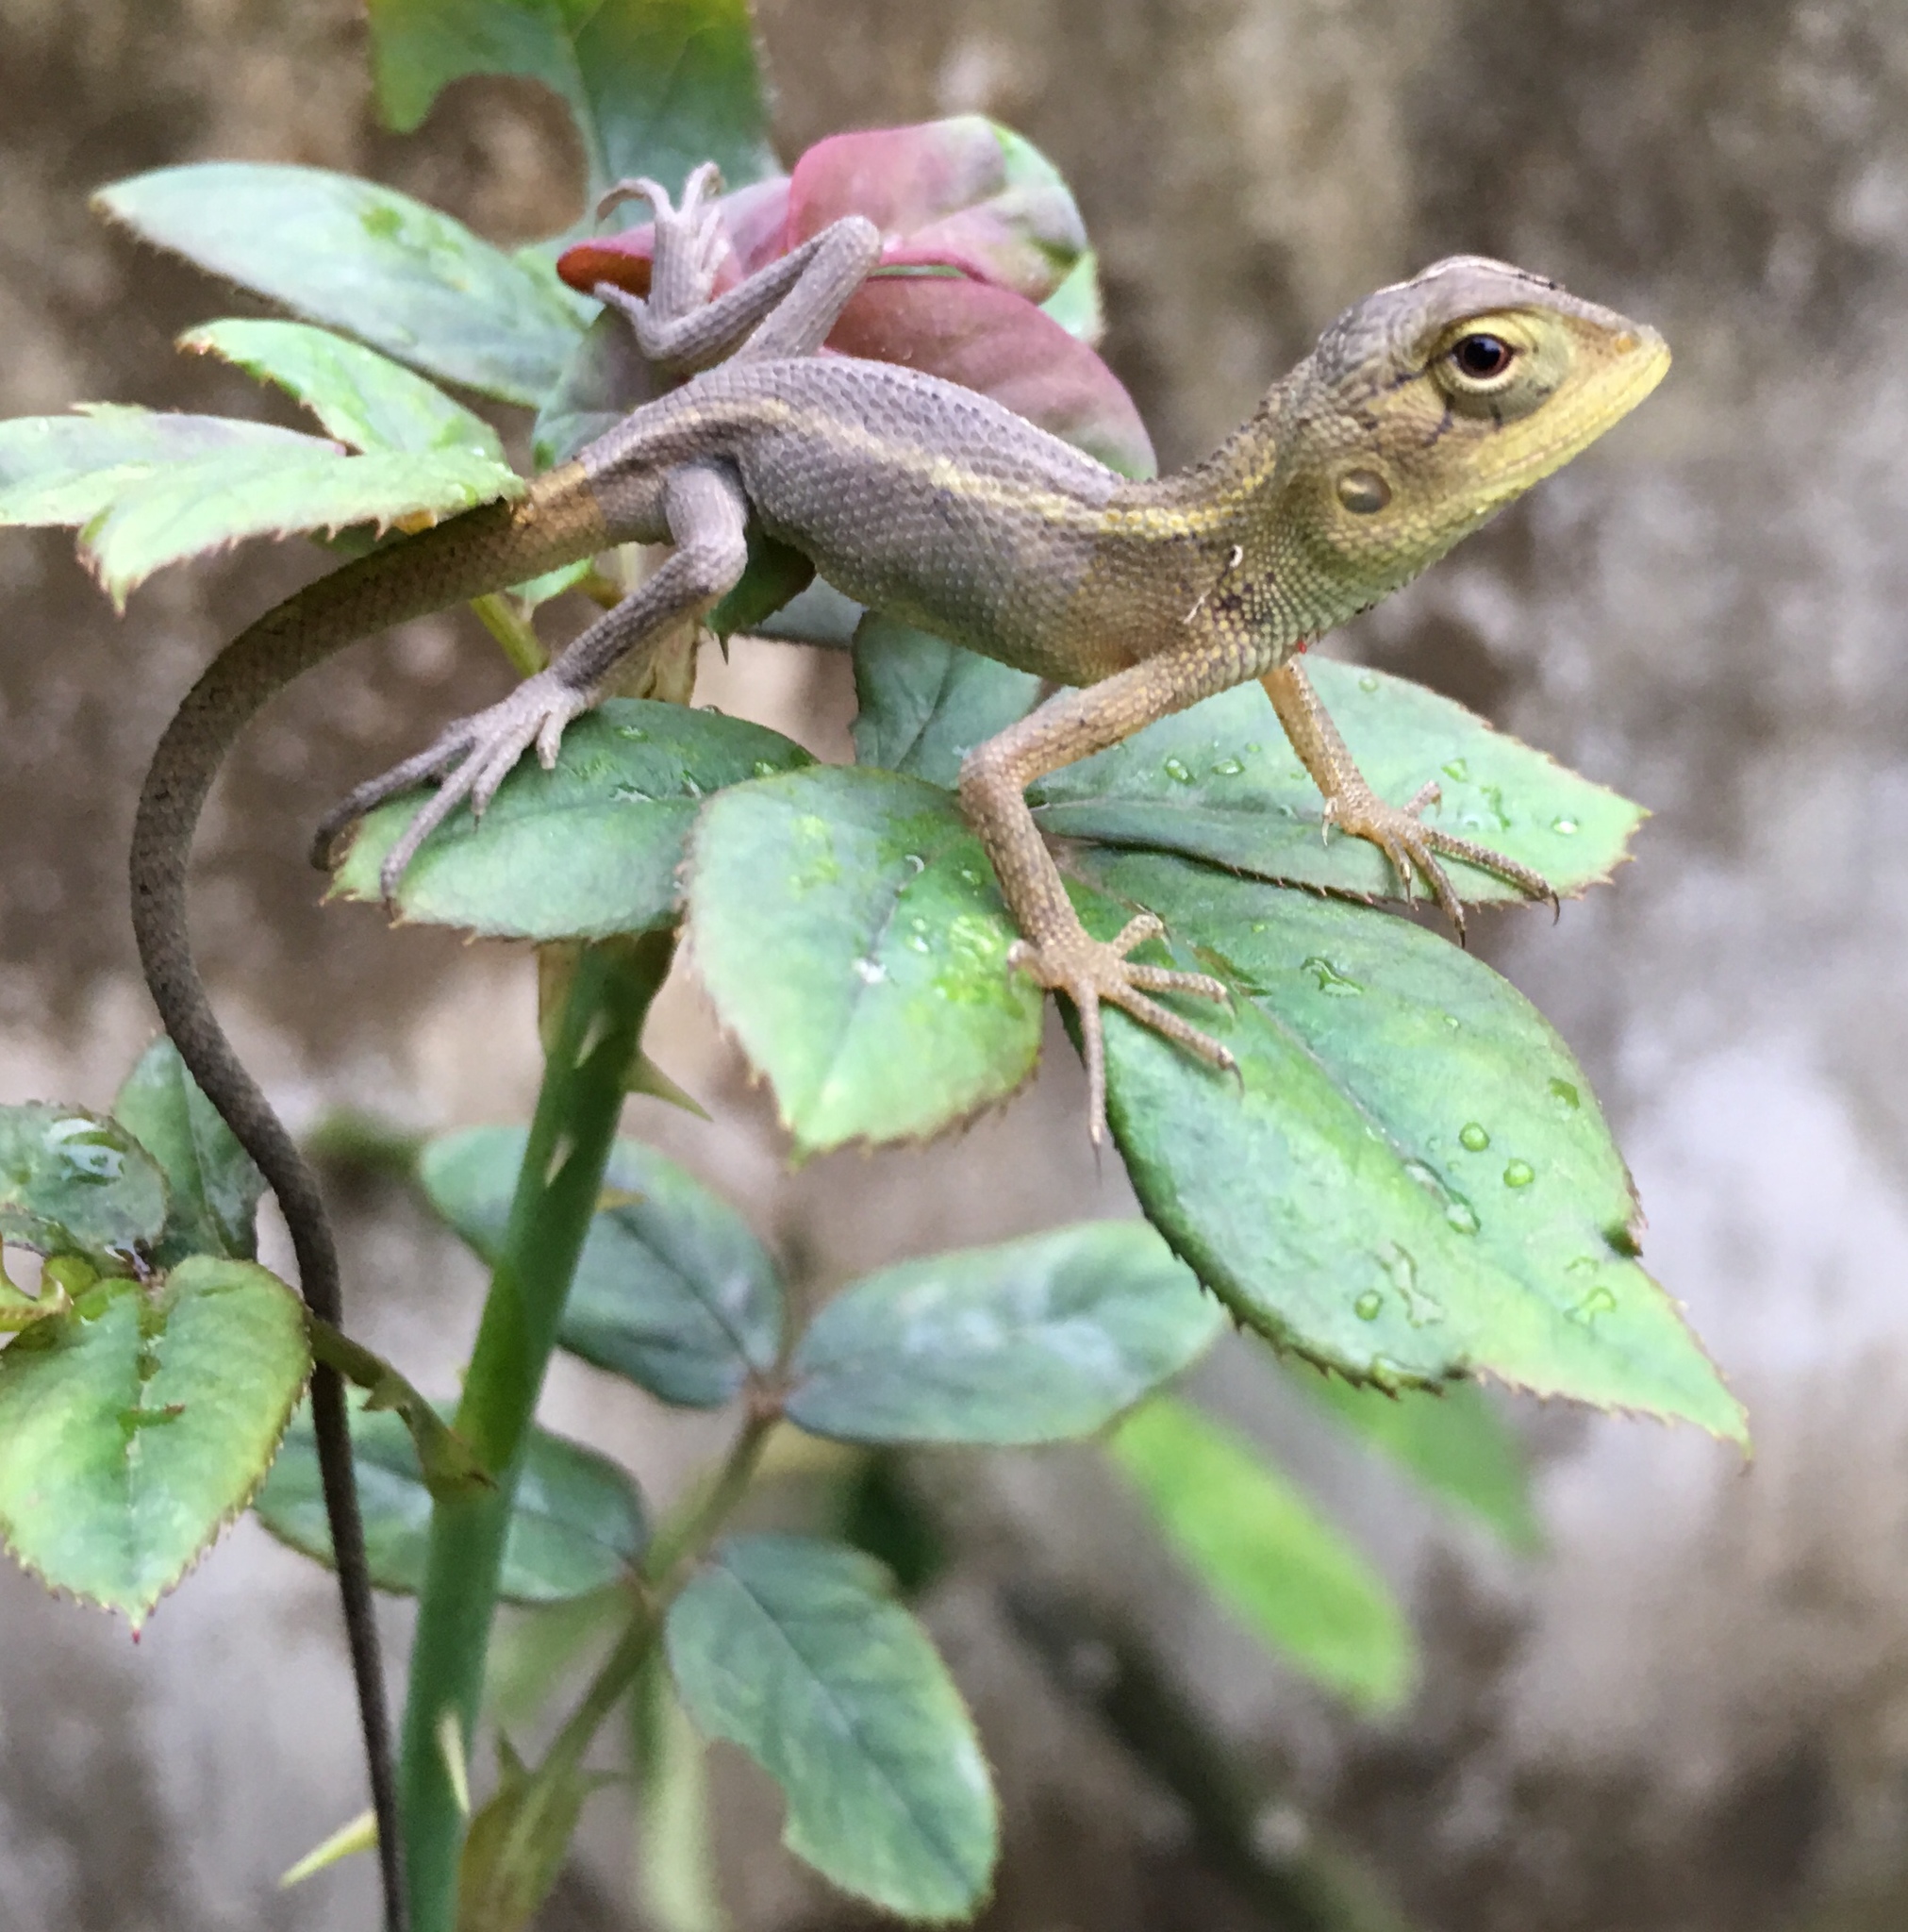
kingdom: Animalia
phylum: Chordata
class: Squamata
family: Agamidae
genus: Calotes
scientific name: Calotes versicolor
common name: Oriental garden lizard
